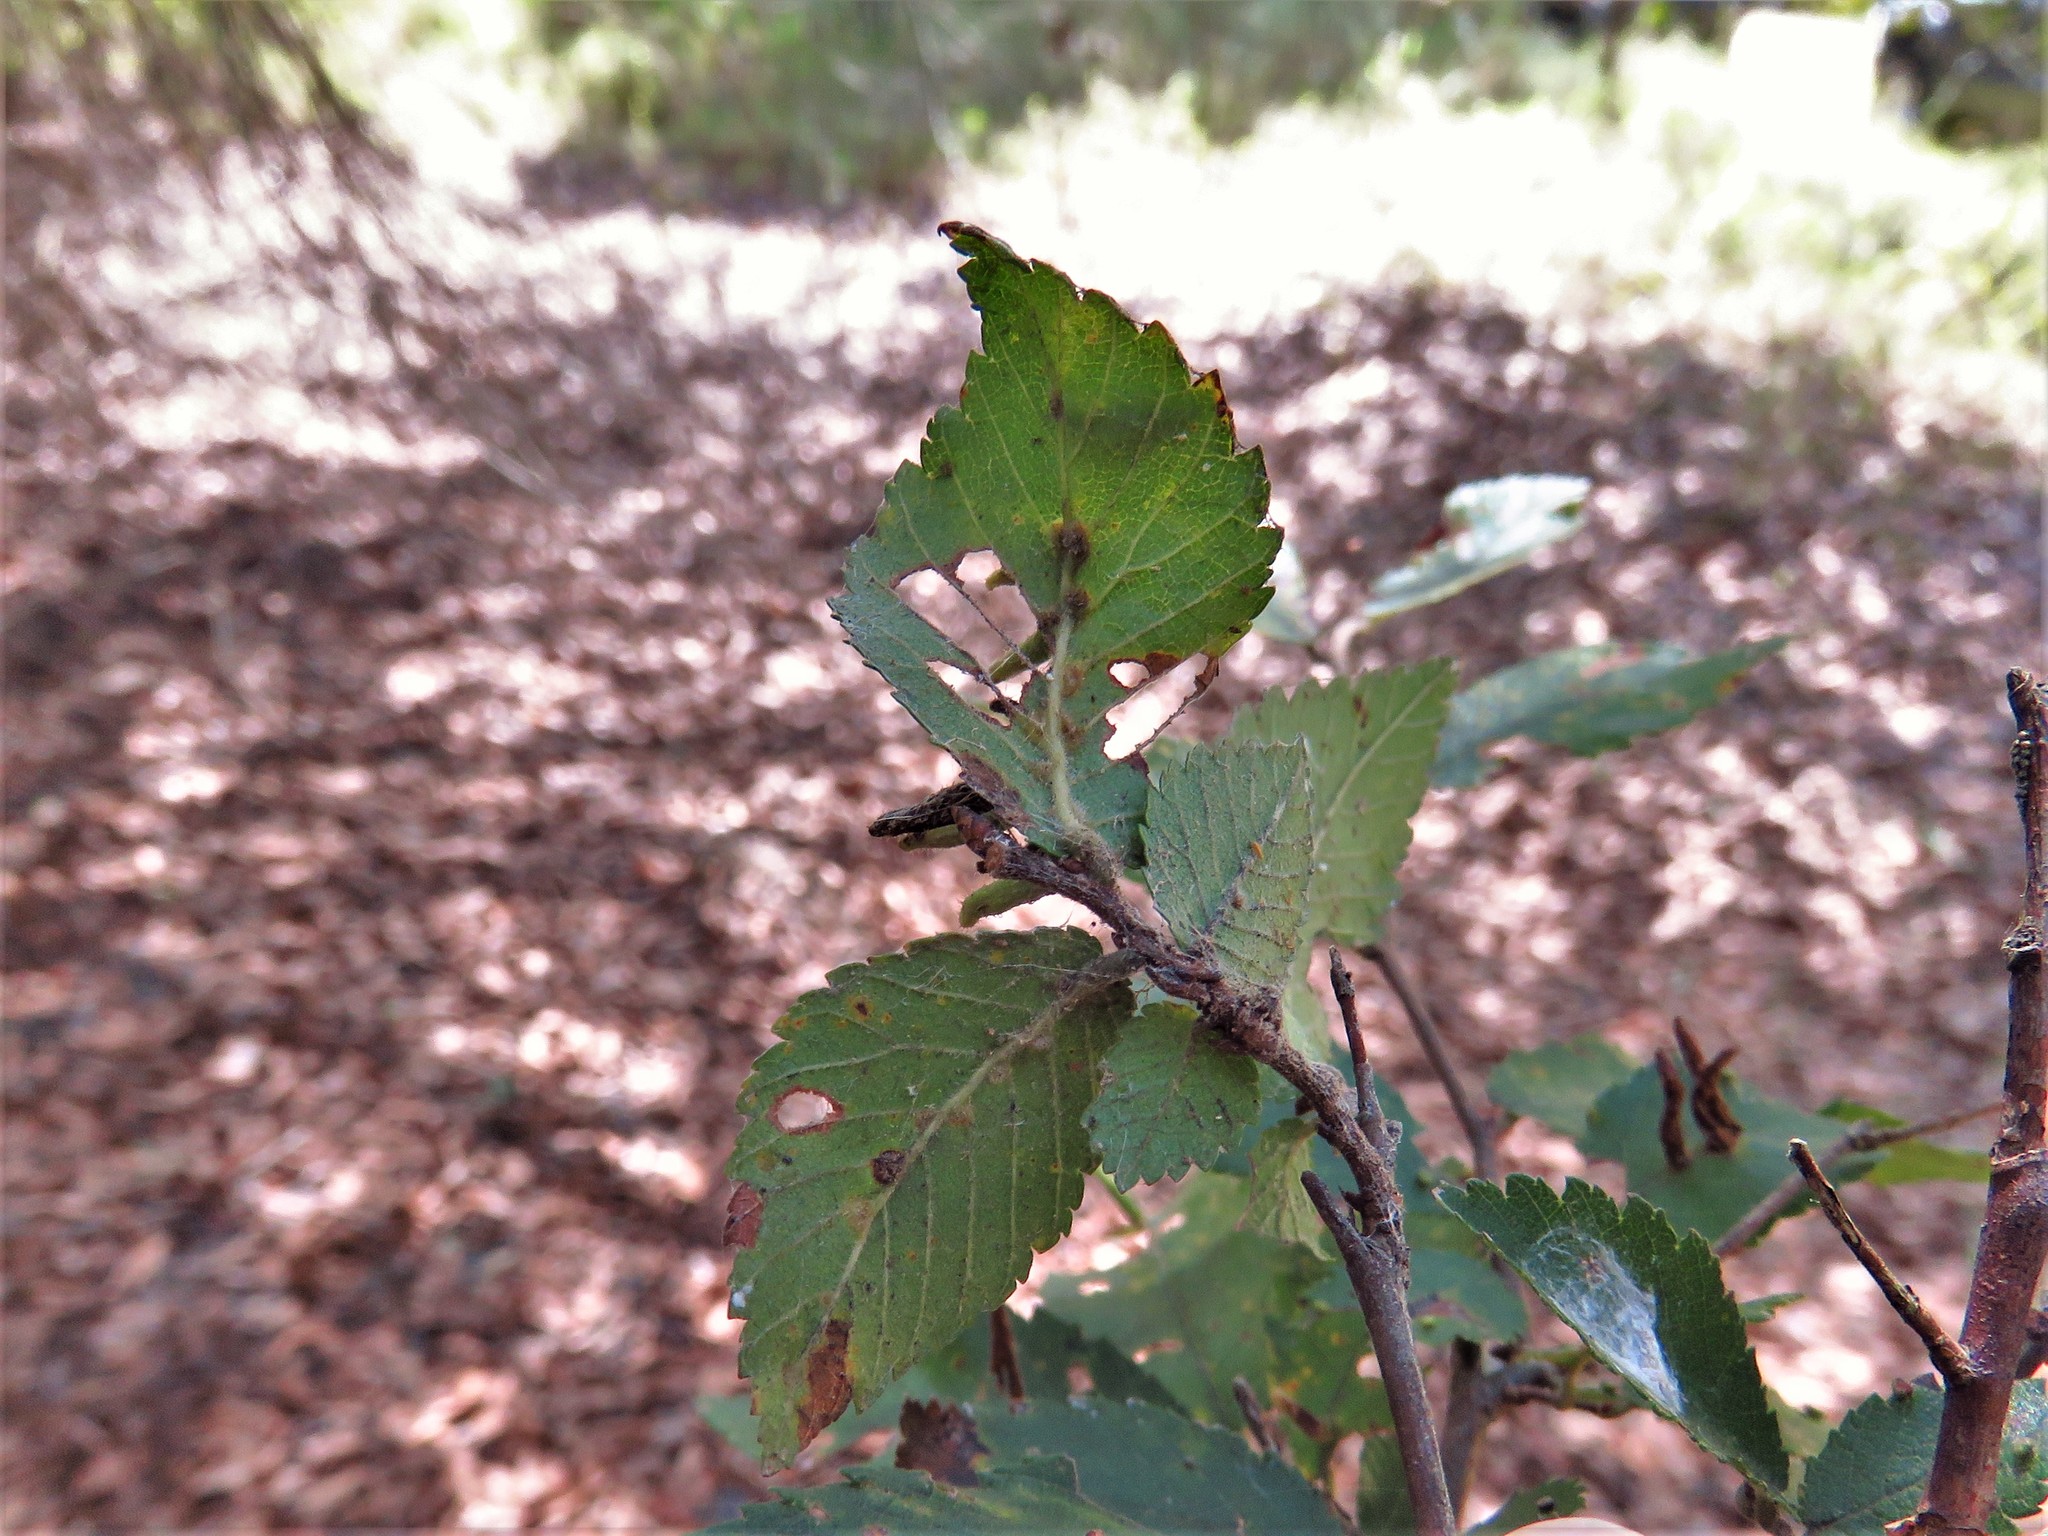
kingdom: Animalia
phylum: Arthropoda
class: Arachnida
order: Trombidiformes
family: Eriophyidae
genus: Aceria
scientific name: Aceria
